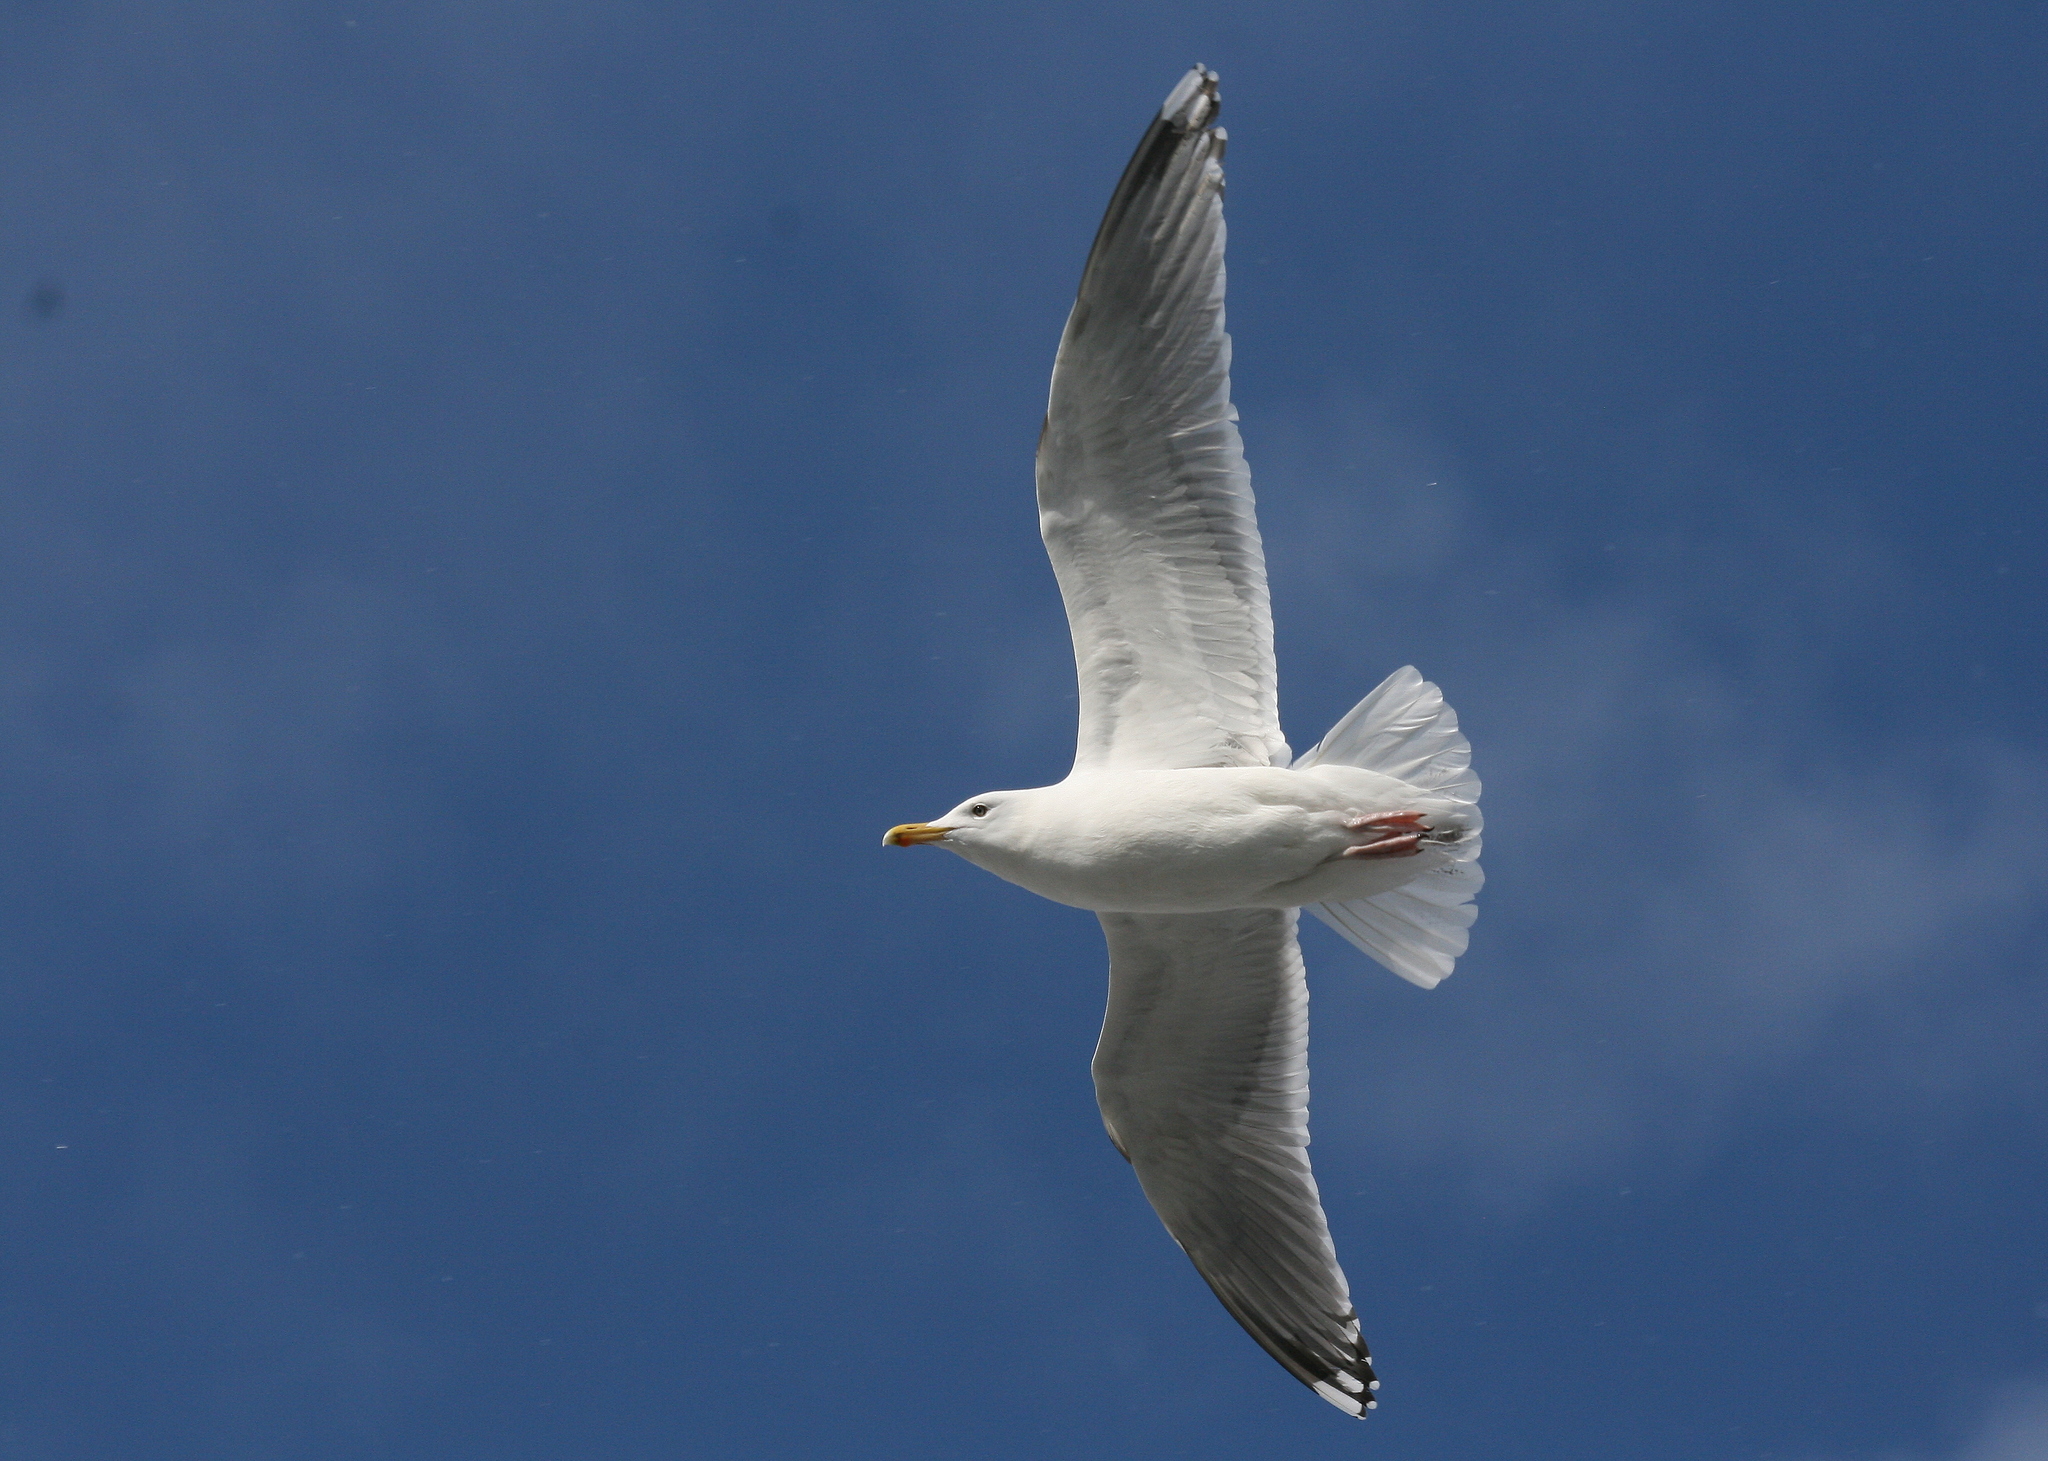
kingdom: Animalia
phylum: Chordata
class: Aves
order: Charadriiformes
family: Laridae
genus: Larus
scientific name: Larus argentatus
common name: Herring gull
